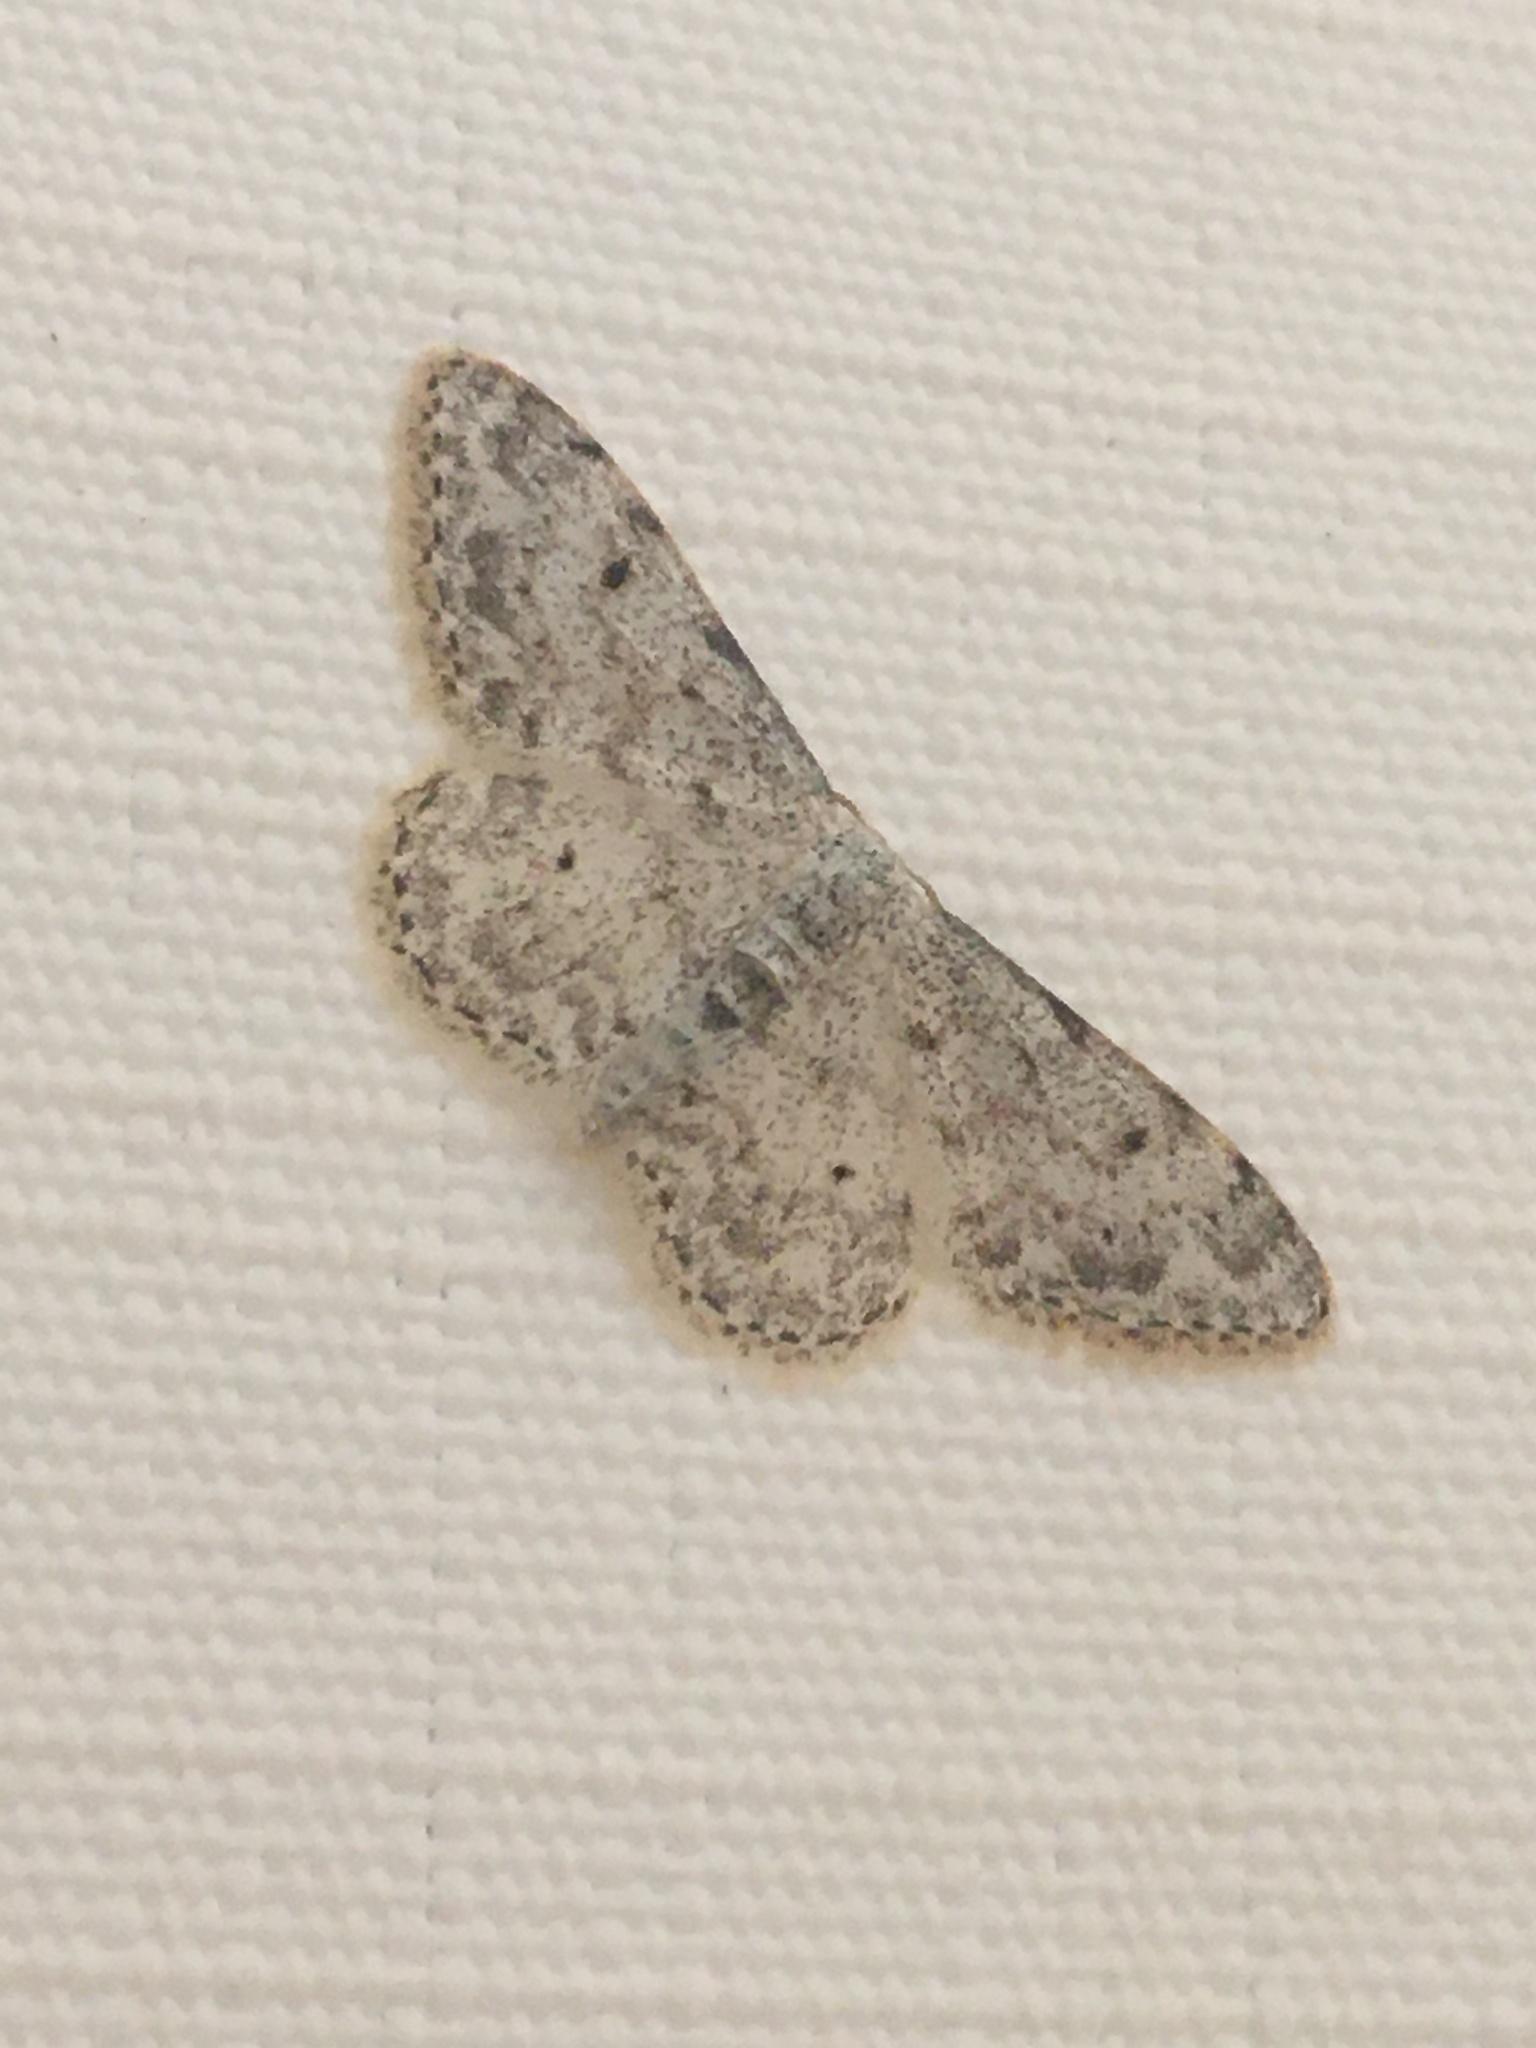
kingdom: Animalia
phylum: Arthropoda
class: Insecta
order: Lepidoptera
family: Geometridae
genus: Idaea
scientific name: Idaea camparia
